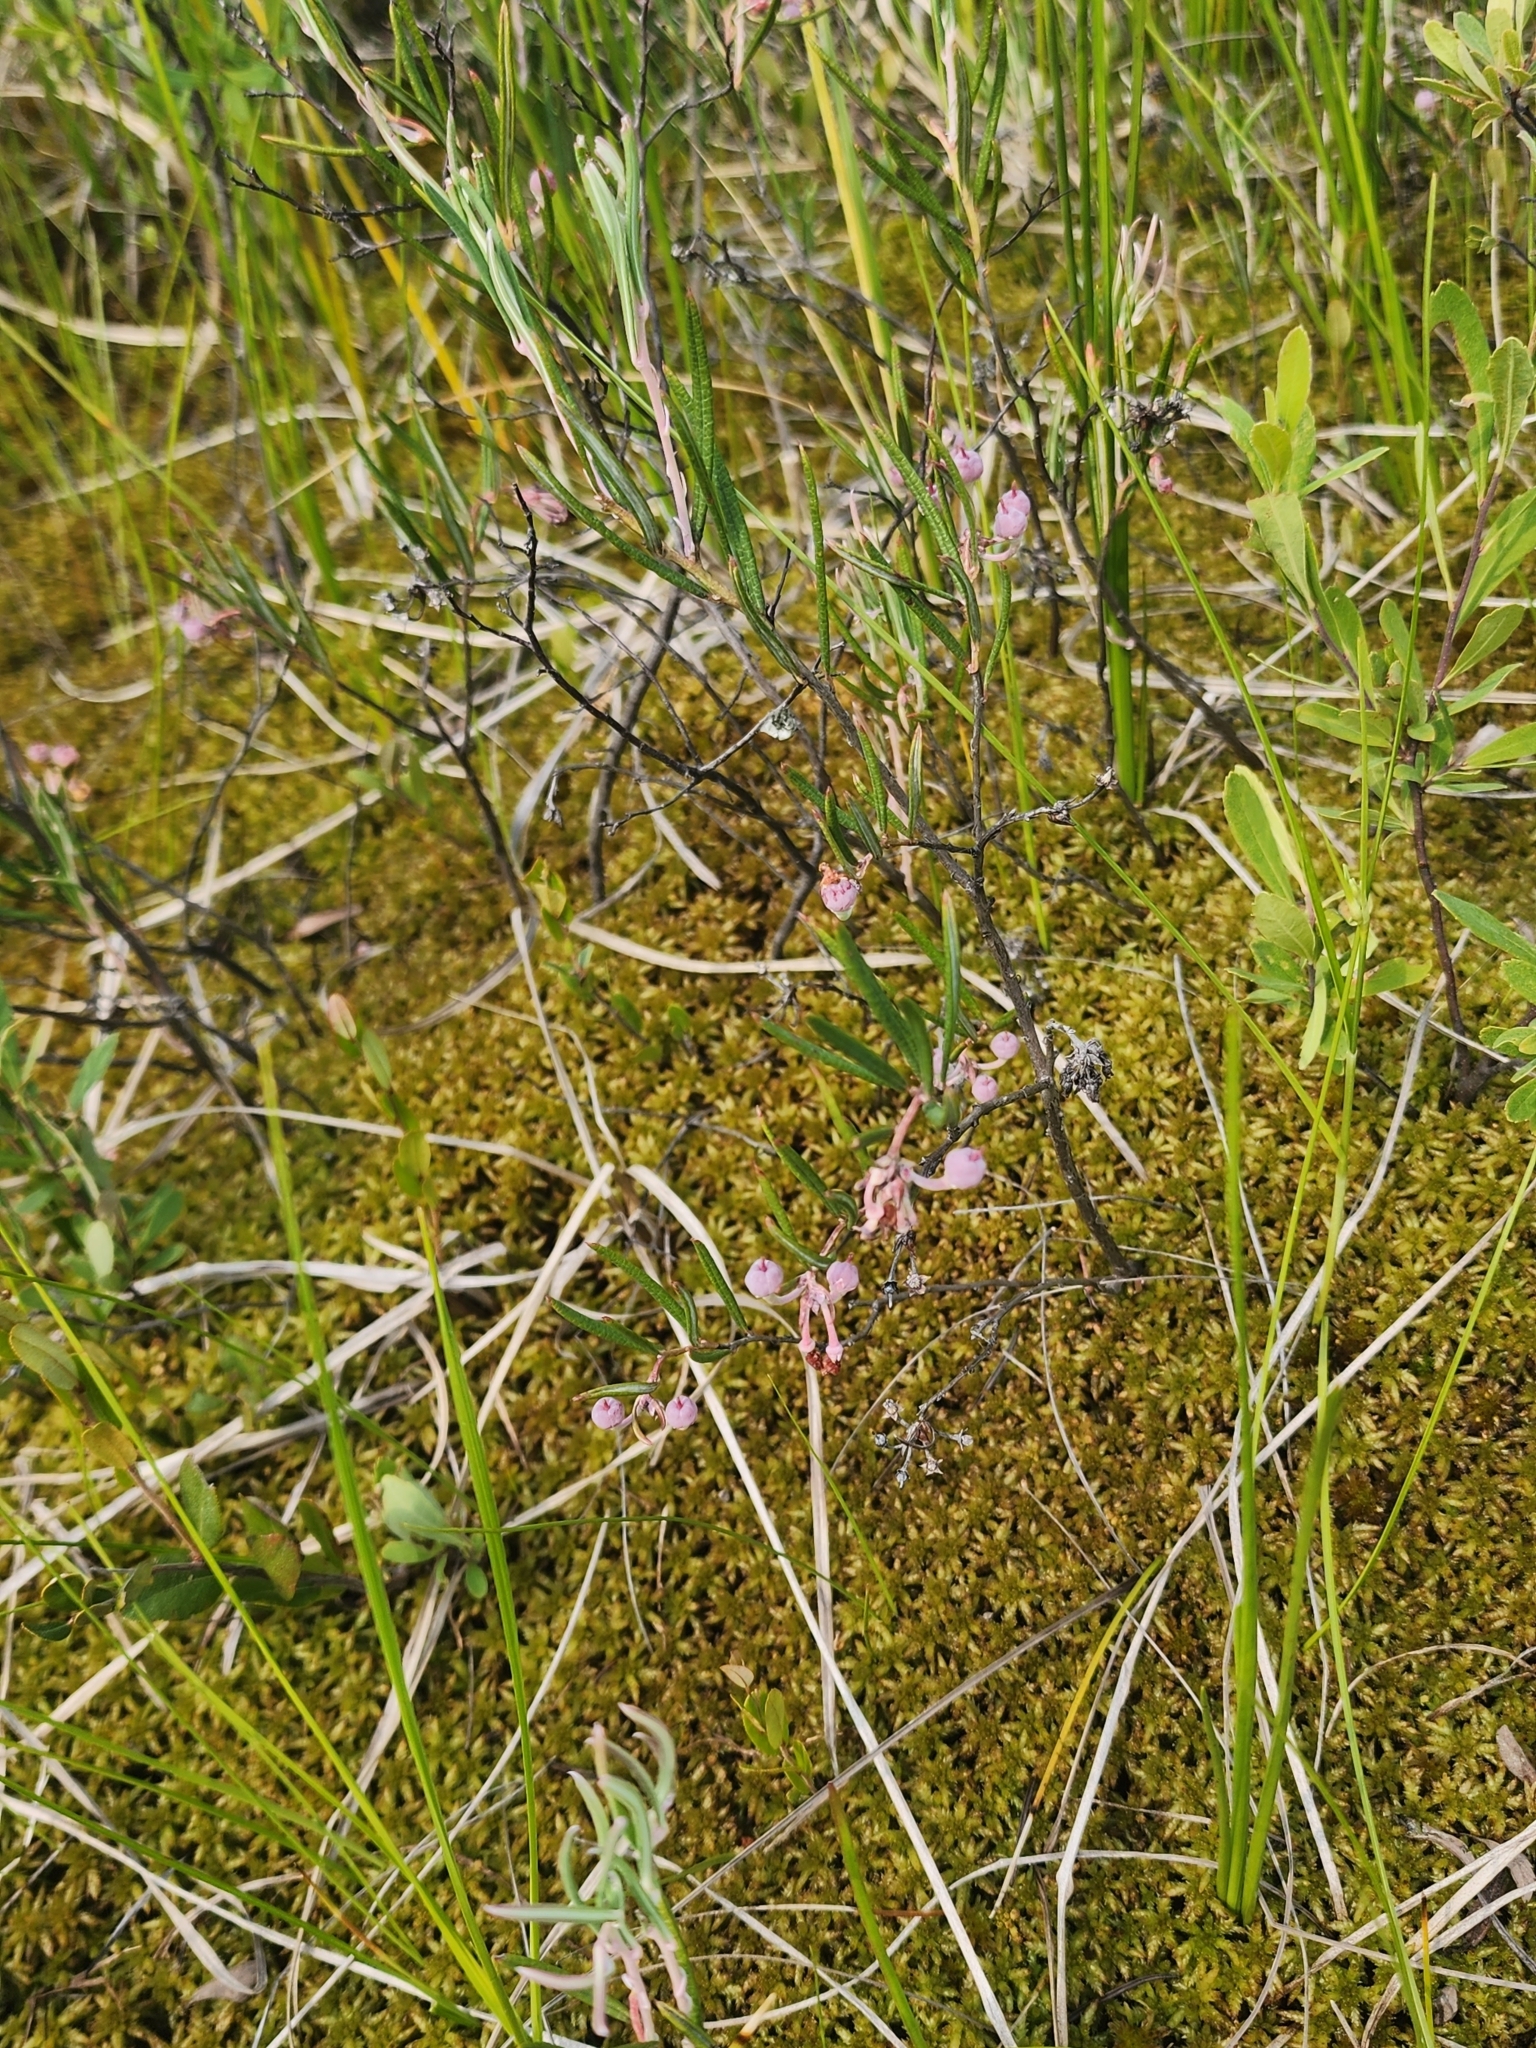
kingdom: Plantae
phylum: Tracheophyta
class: Magnoliopsida
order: Ericales
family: Ericaceae
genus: Andromeda
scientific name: Andromeda polifolia
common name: Bog-rosemary
